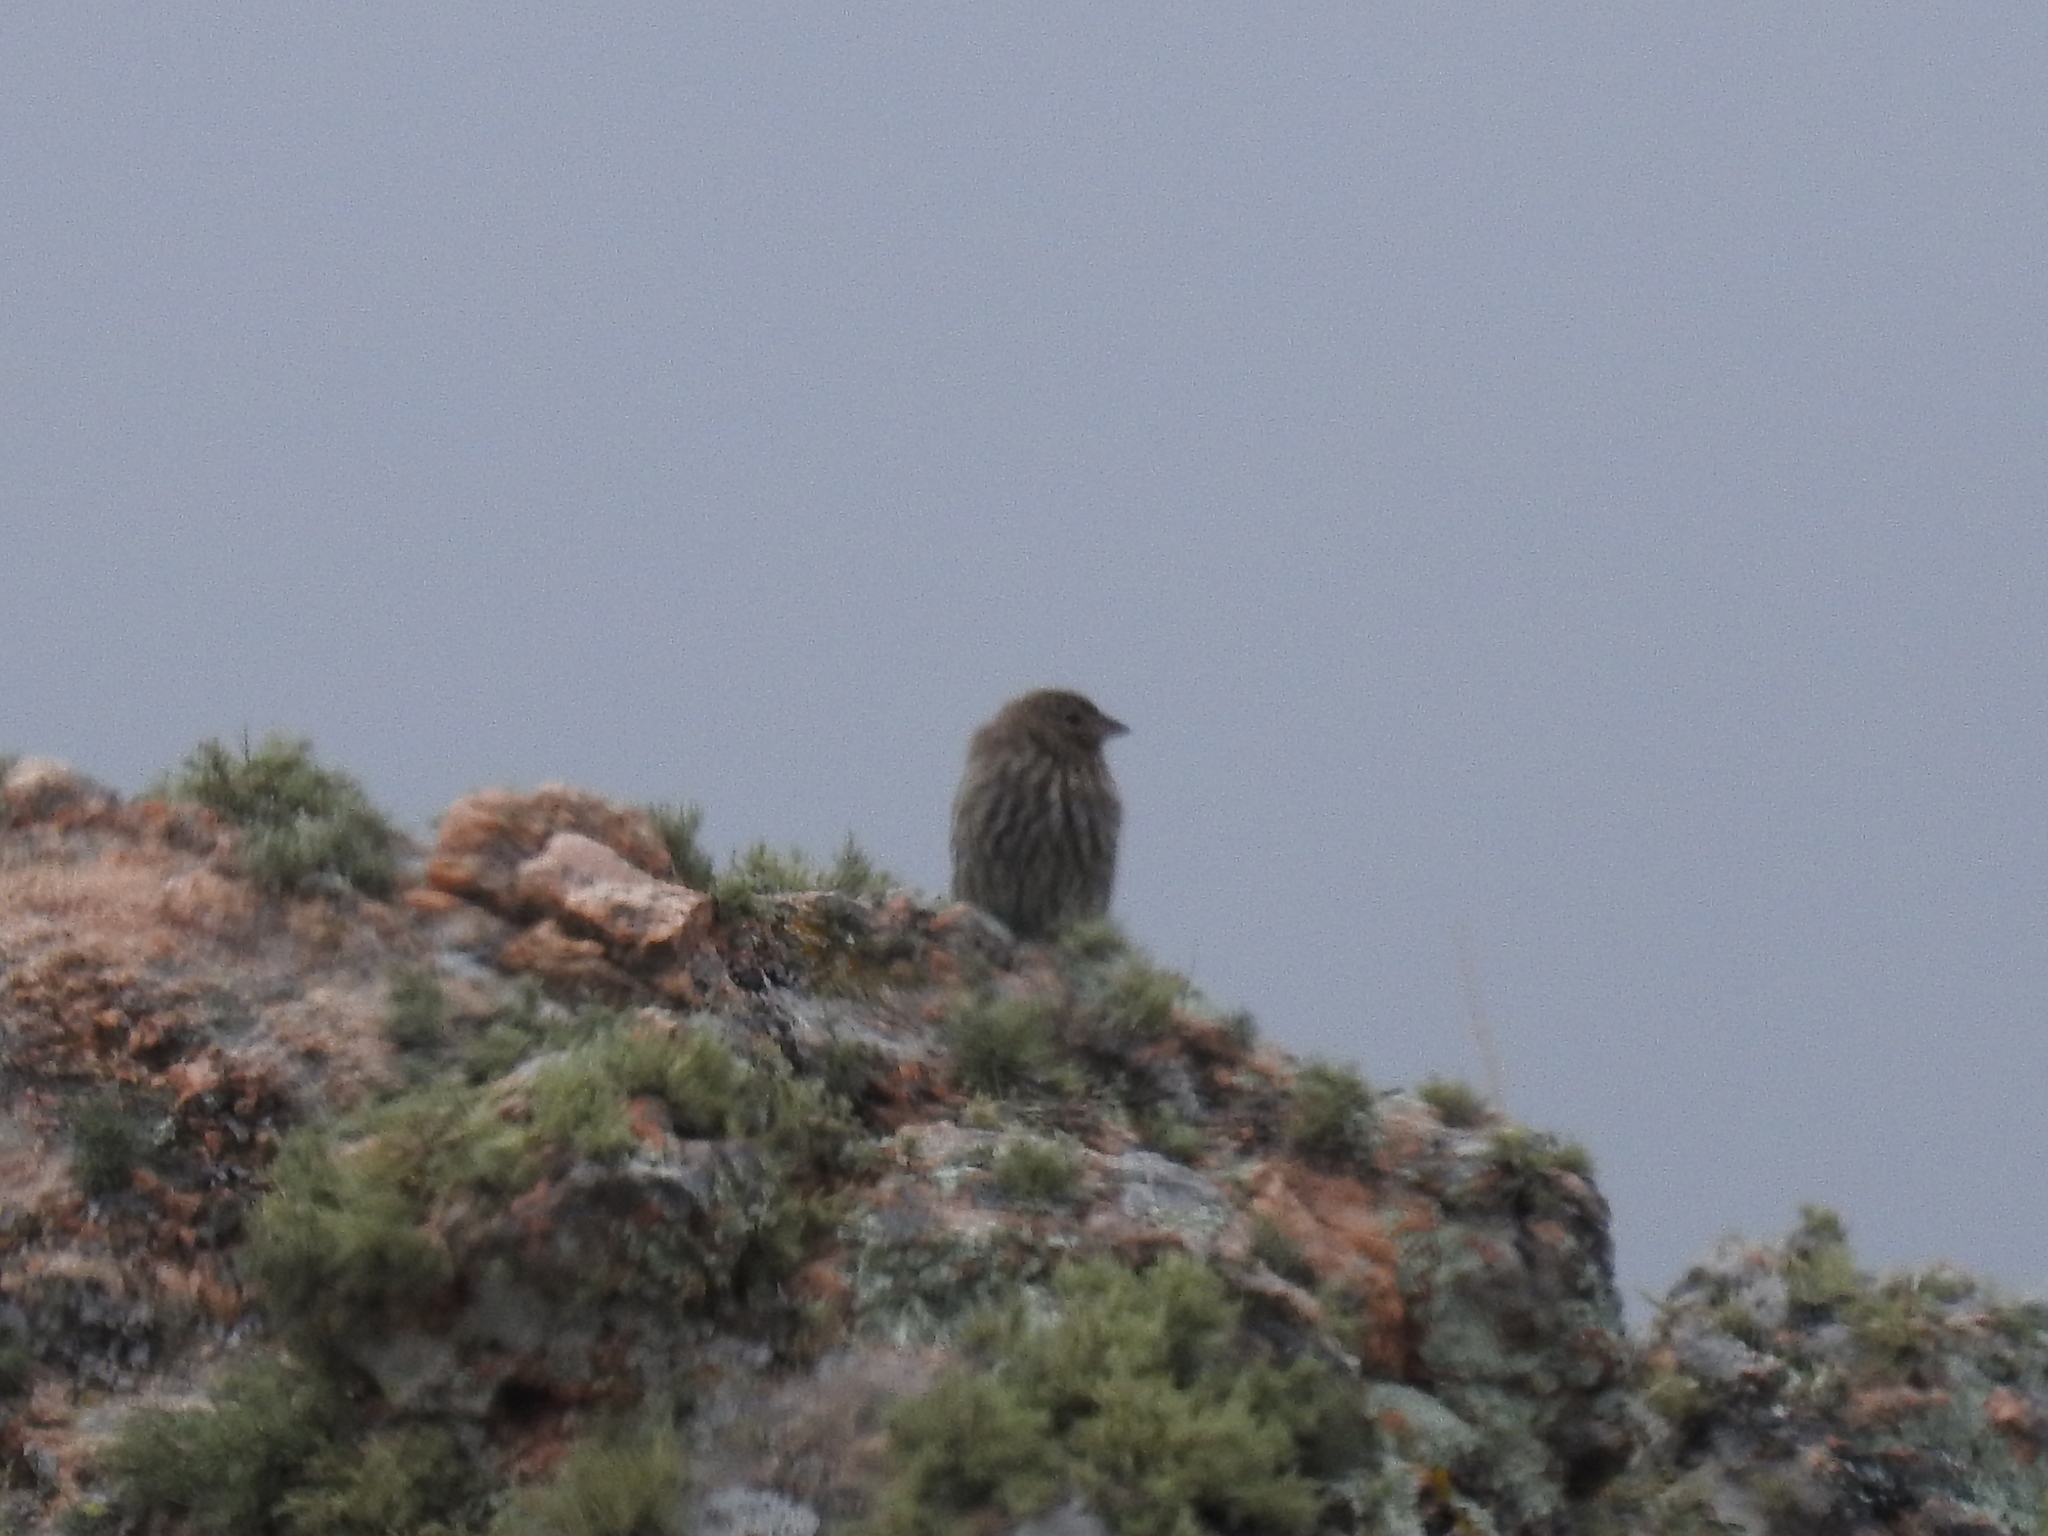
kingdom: Animalia
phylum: Chordata
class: Aves
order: Passeriformes
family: Thraupidae
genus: Geospizopsis
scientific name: Geospizopsis unicolor
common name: Plumbeous sierra-finch
